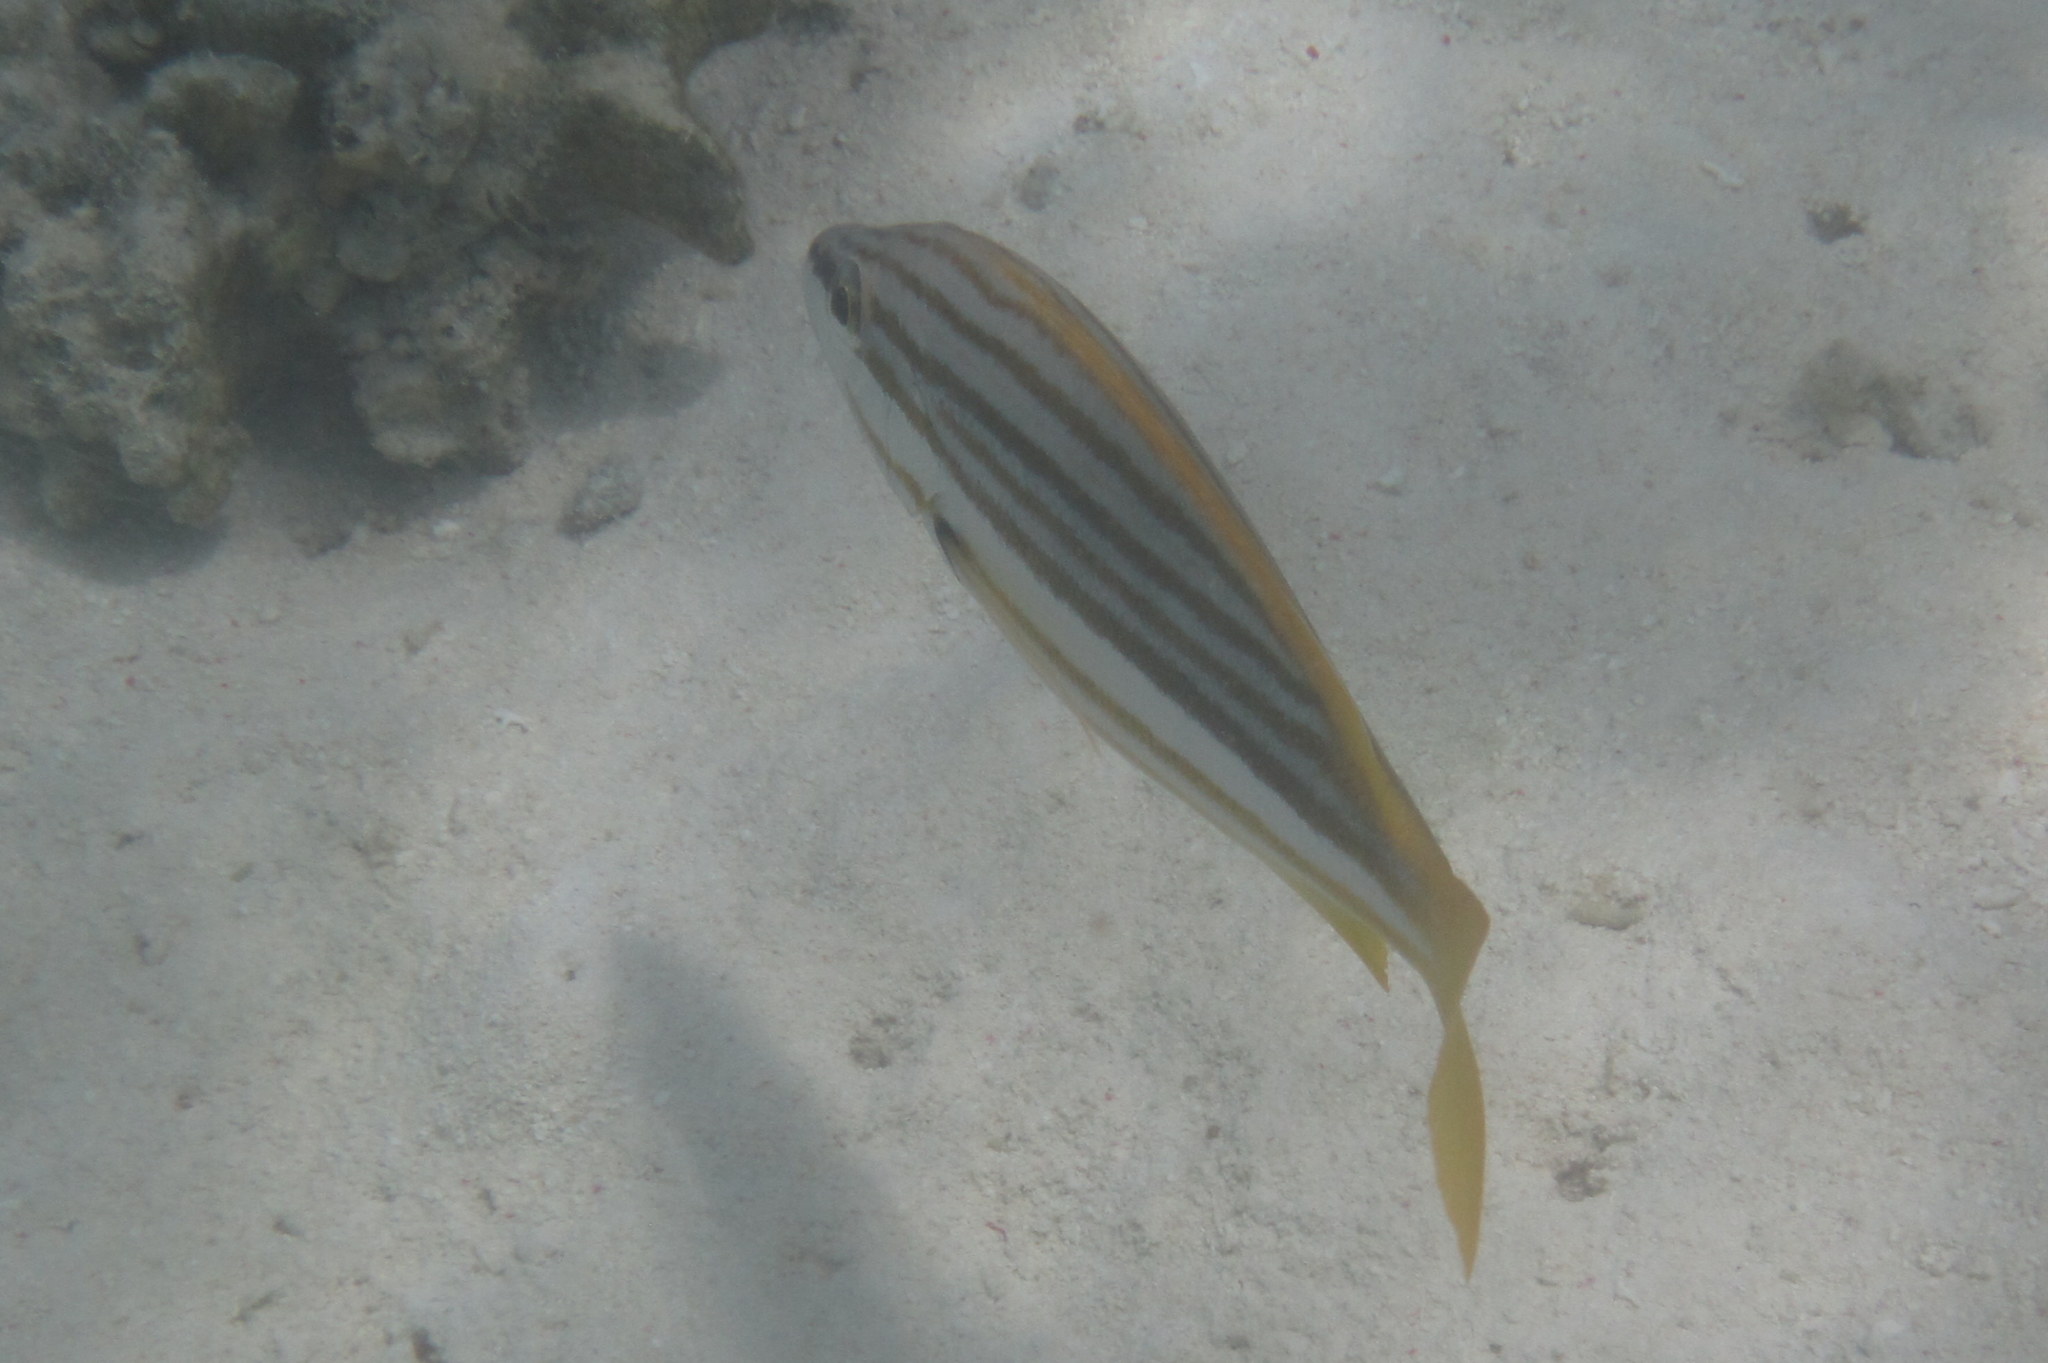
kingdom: Animalia
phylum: Chordata
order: Perciformes
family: Lutjanidae
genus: Lutjanus
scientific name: Lutjanus carponotatus
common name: Spanish flag
